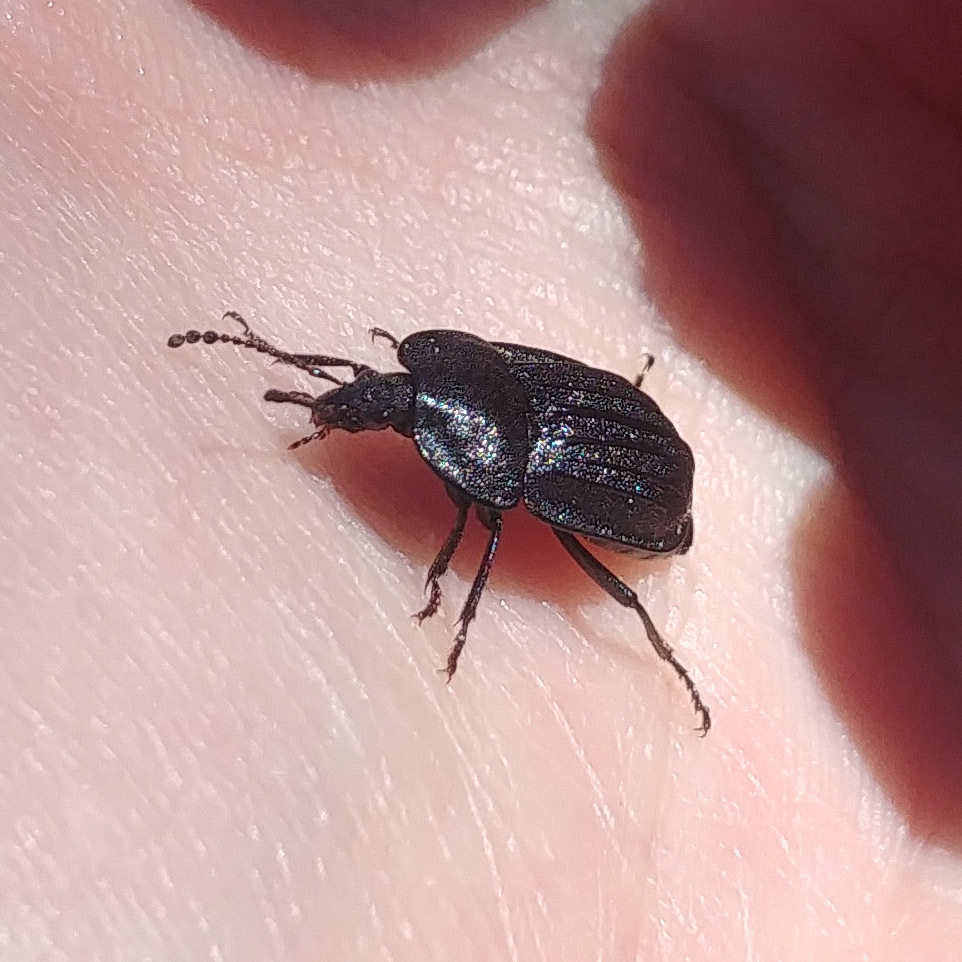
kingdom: Animalia
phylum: Arthropoda
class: Insecta
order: Coleoptera
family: Staphylinidae
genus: Silpha
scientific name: Silpha atrata
